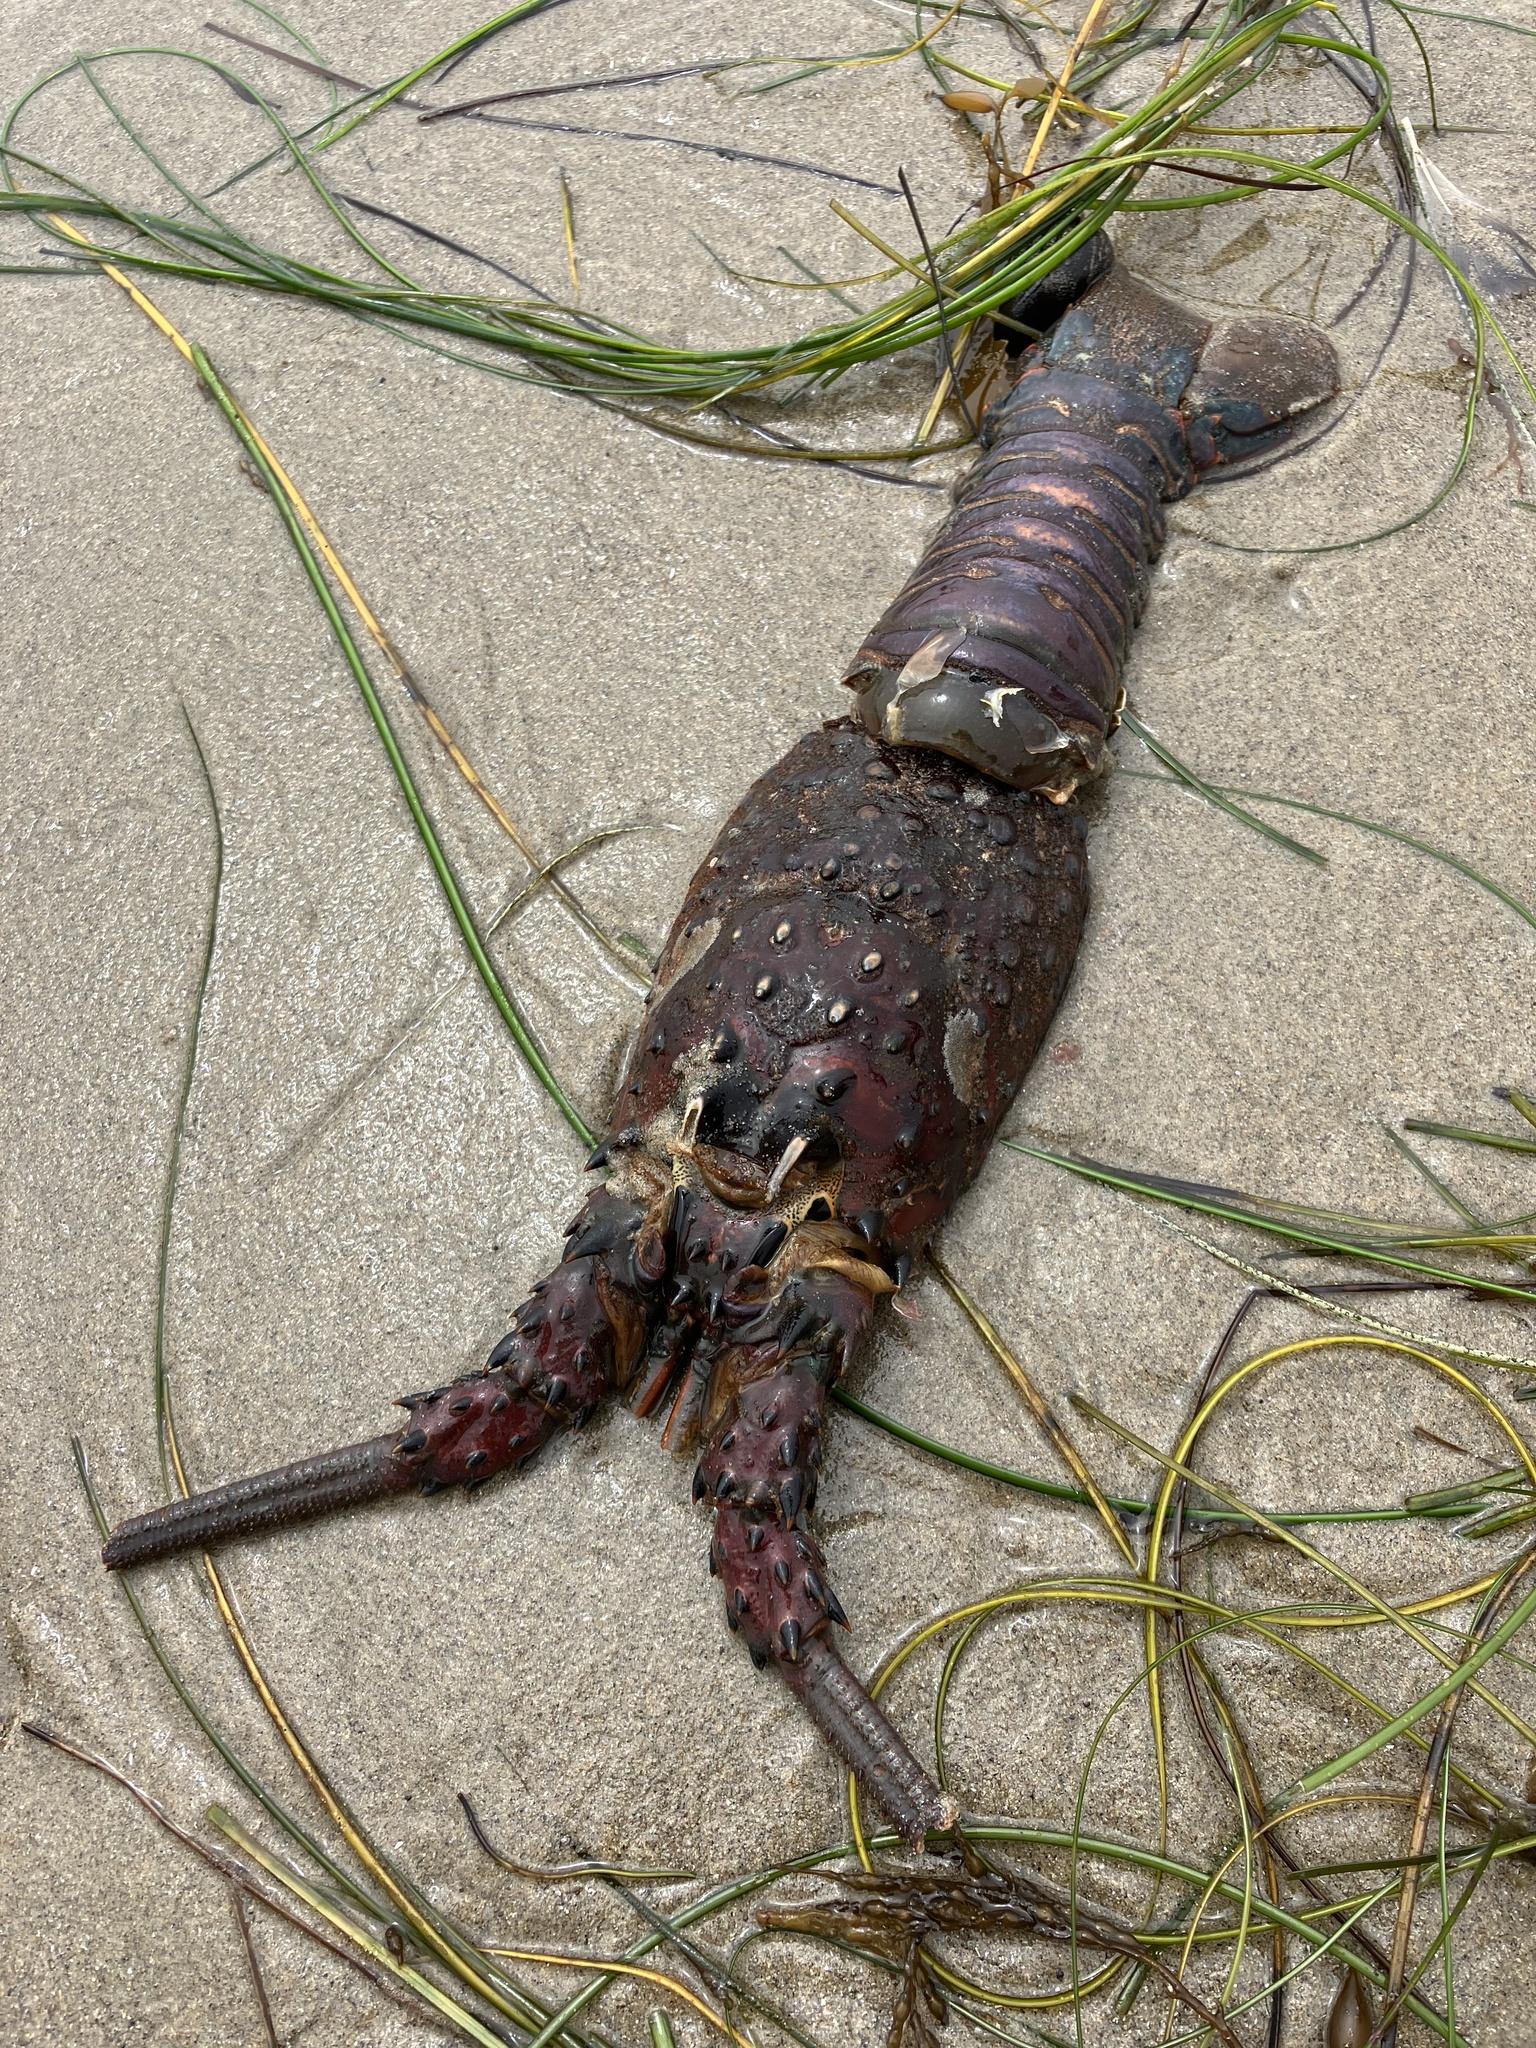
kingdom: Animalia
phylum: Arthropoda
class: Malacostraca
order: Decapoda
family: Palinuridae
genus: Panulirus
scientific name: Panulirus interruptus
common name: California spiny lobster
